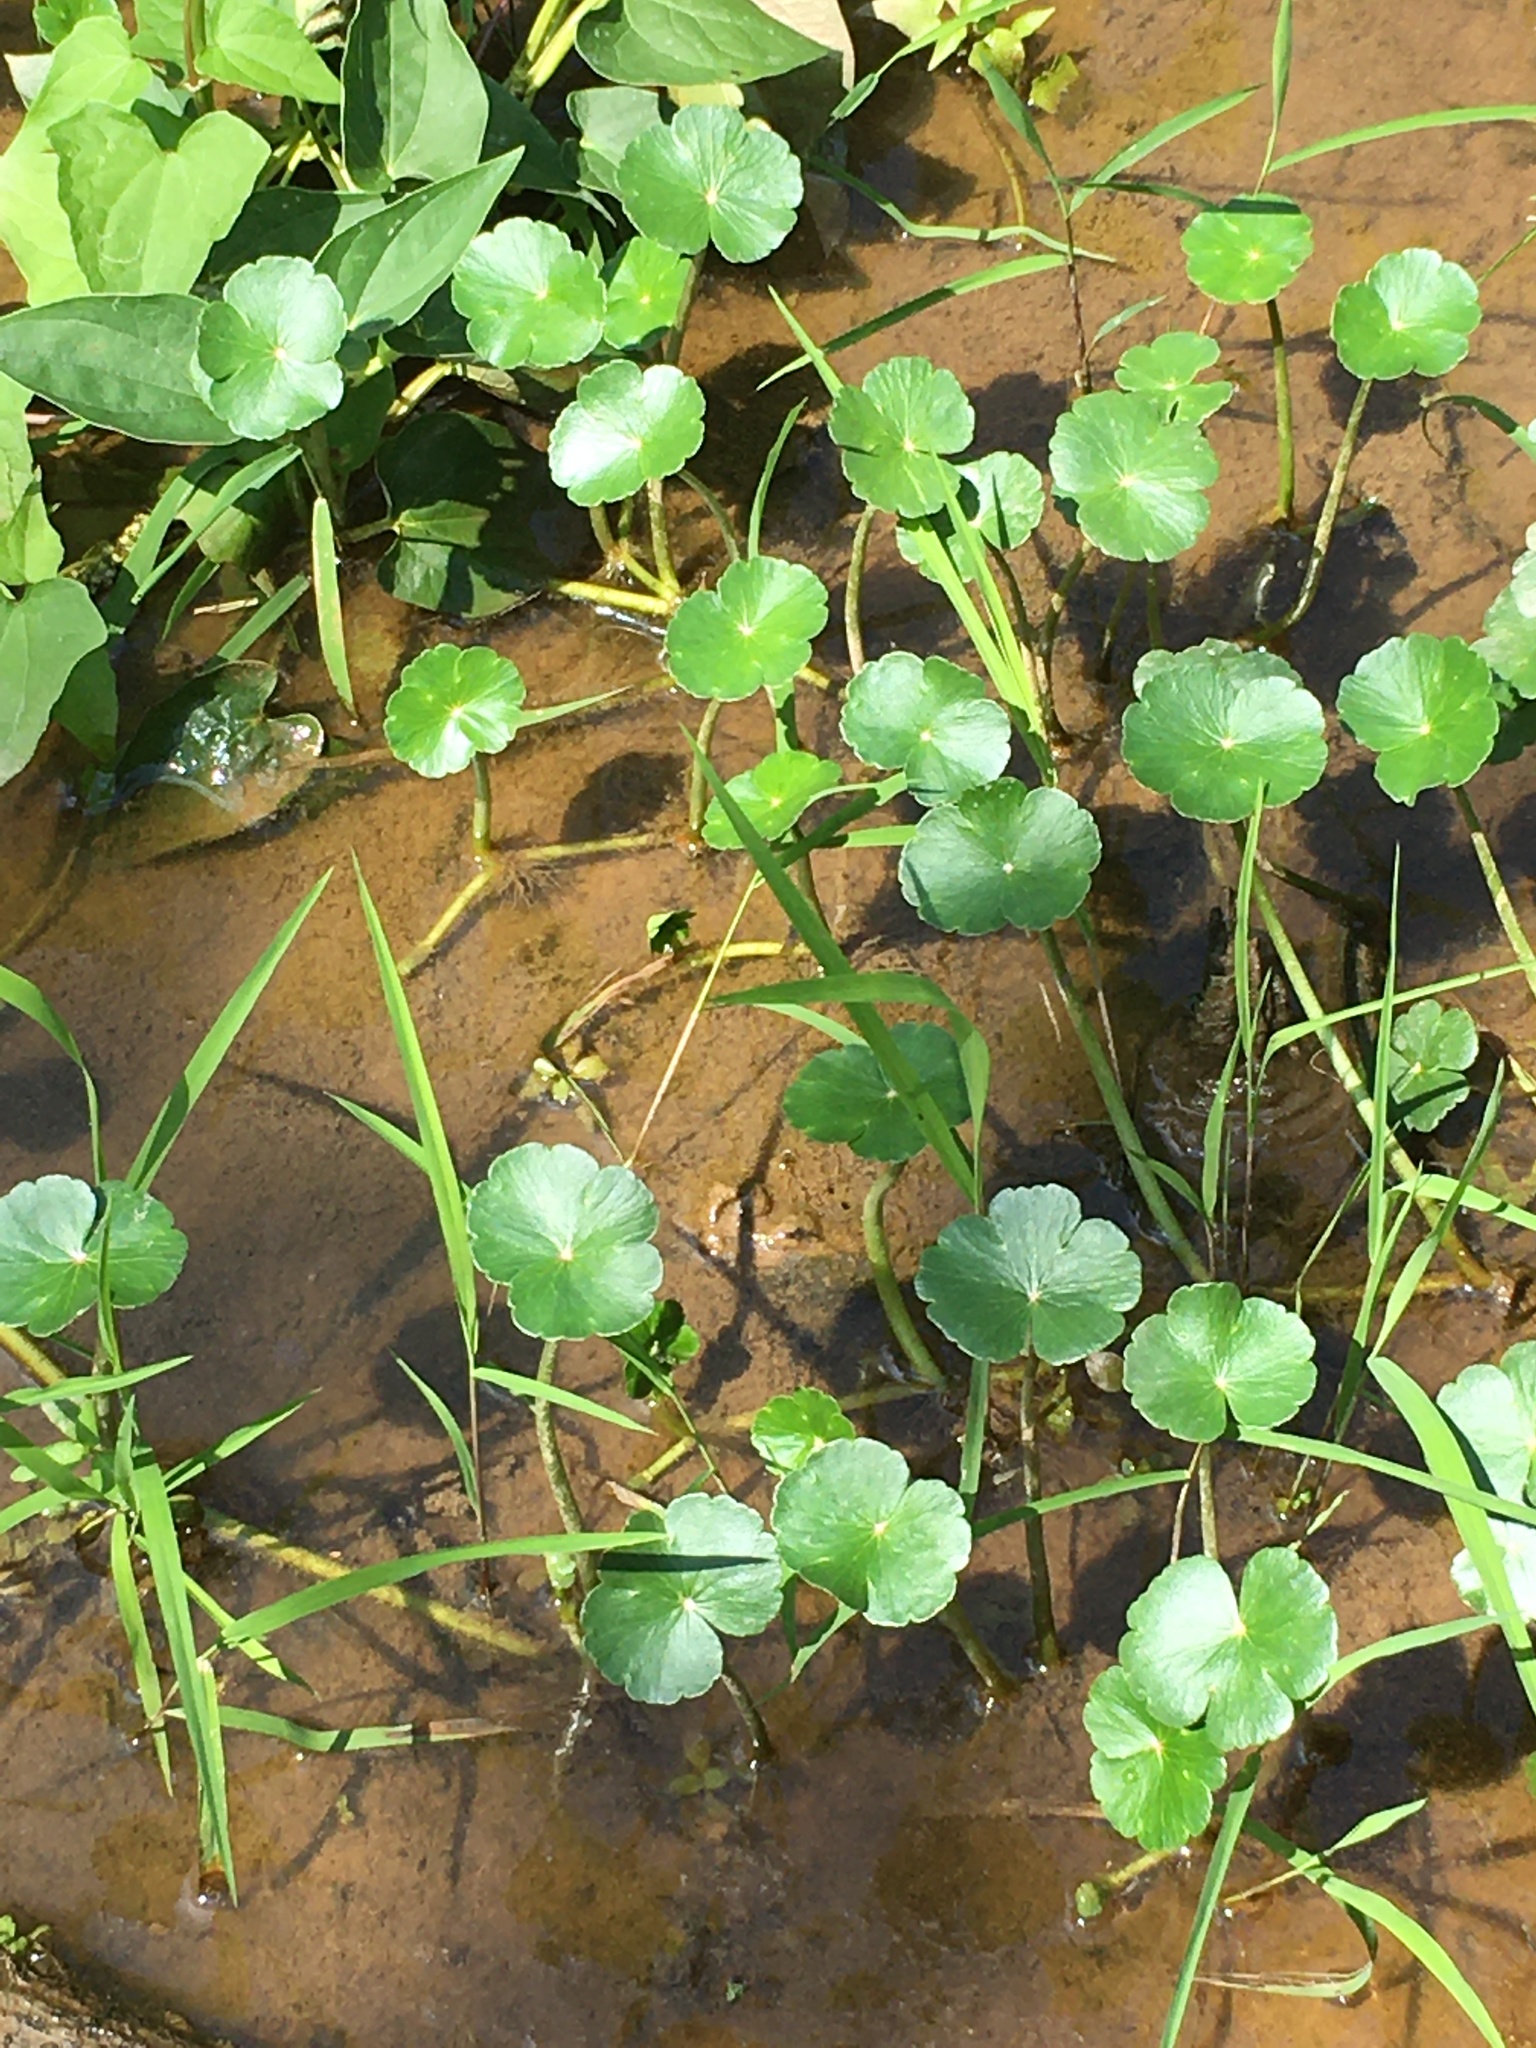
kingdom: Plantae
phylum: Tracheophyta
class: Magnoliopsida
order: Apiales
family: Araliaceae
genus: Hydrocotyle
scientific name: Hydrocotyle ranunculoides
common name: Floating pennywort
